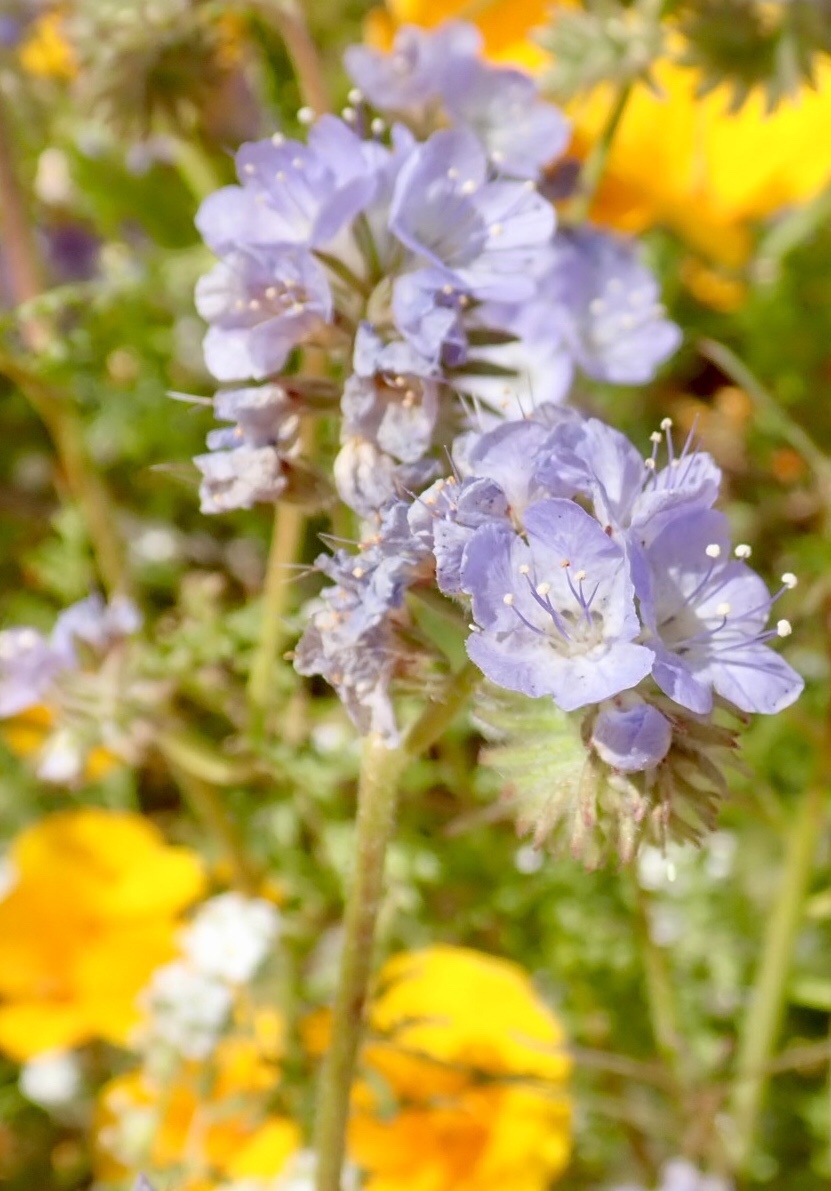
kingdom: Plantae
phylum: Tracheophyta
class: Magnoliopsida
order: Boraginales
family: Hydrophyllaceae
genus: Phacelia
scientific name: Phacelia distans
